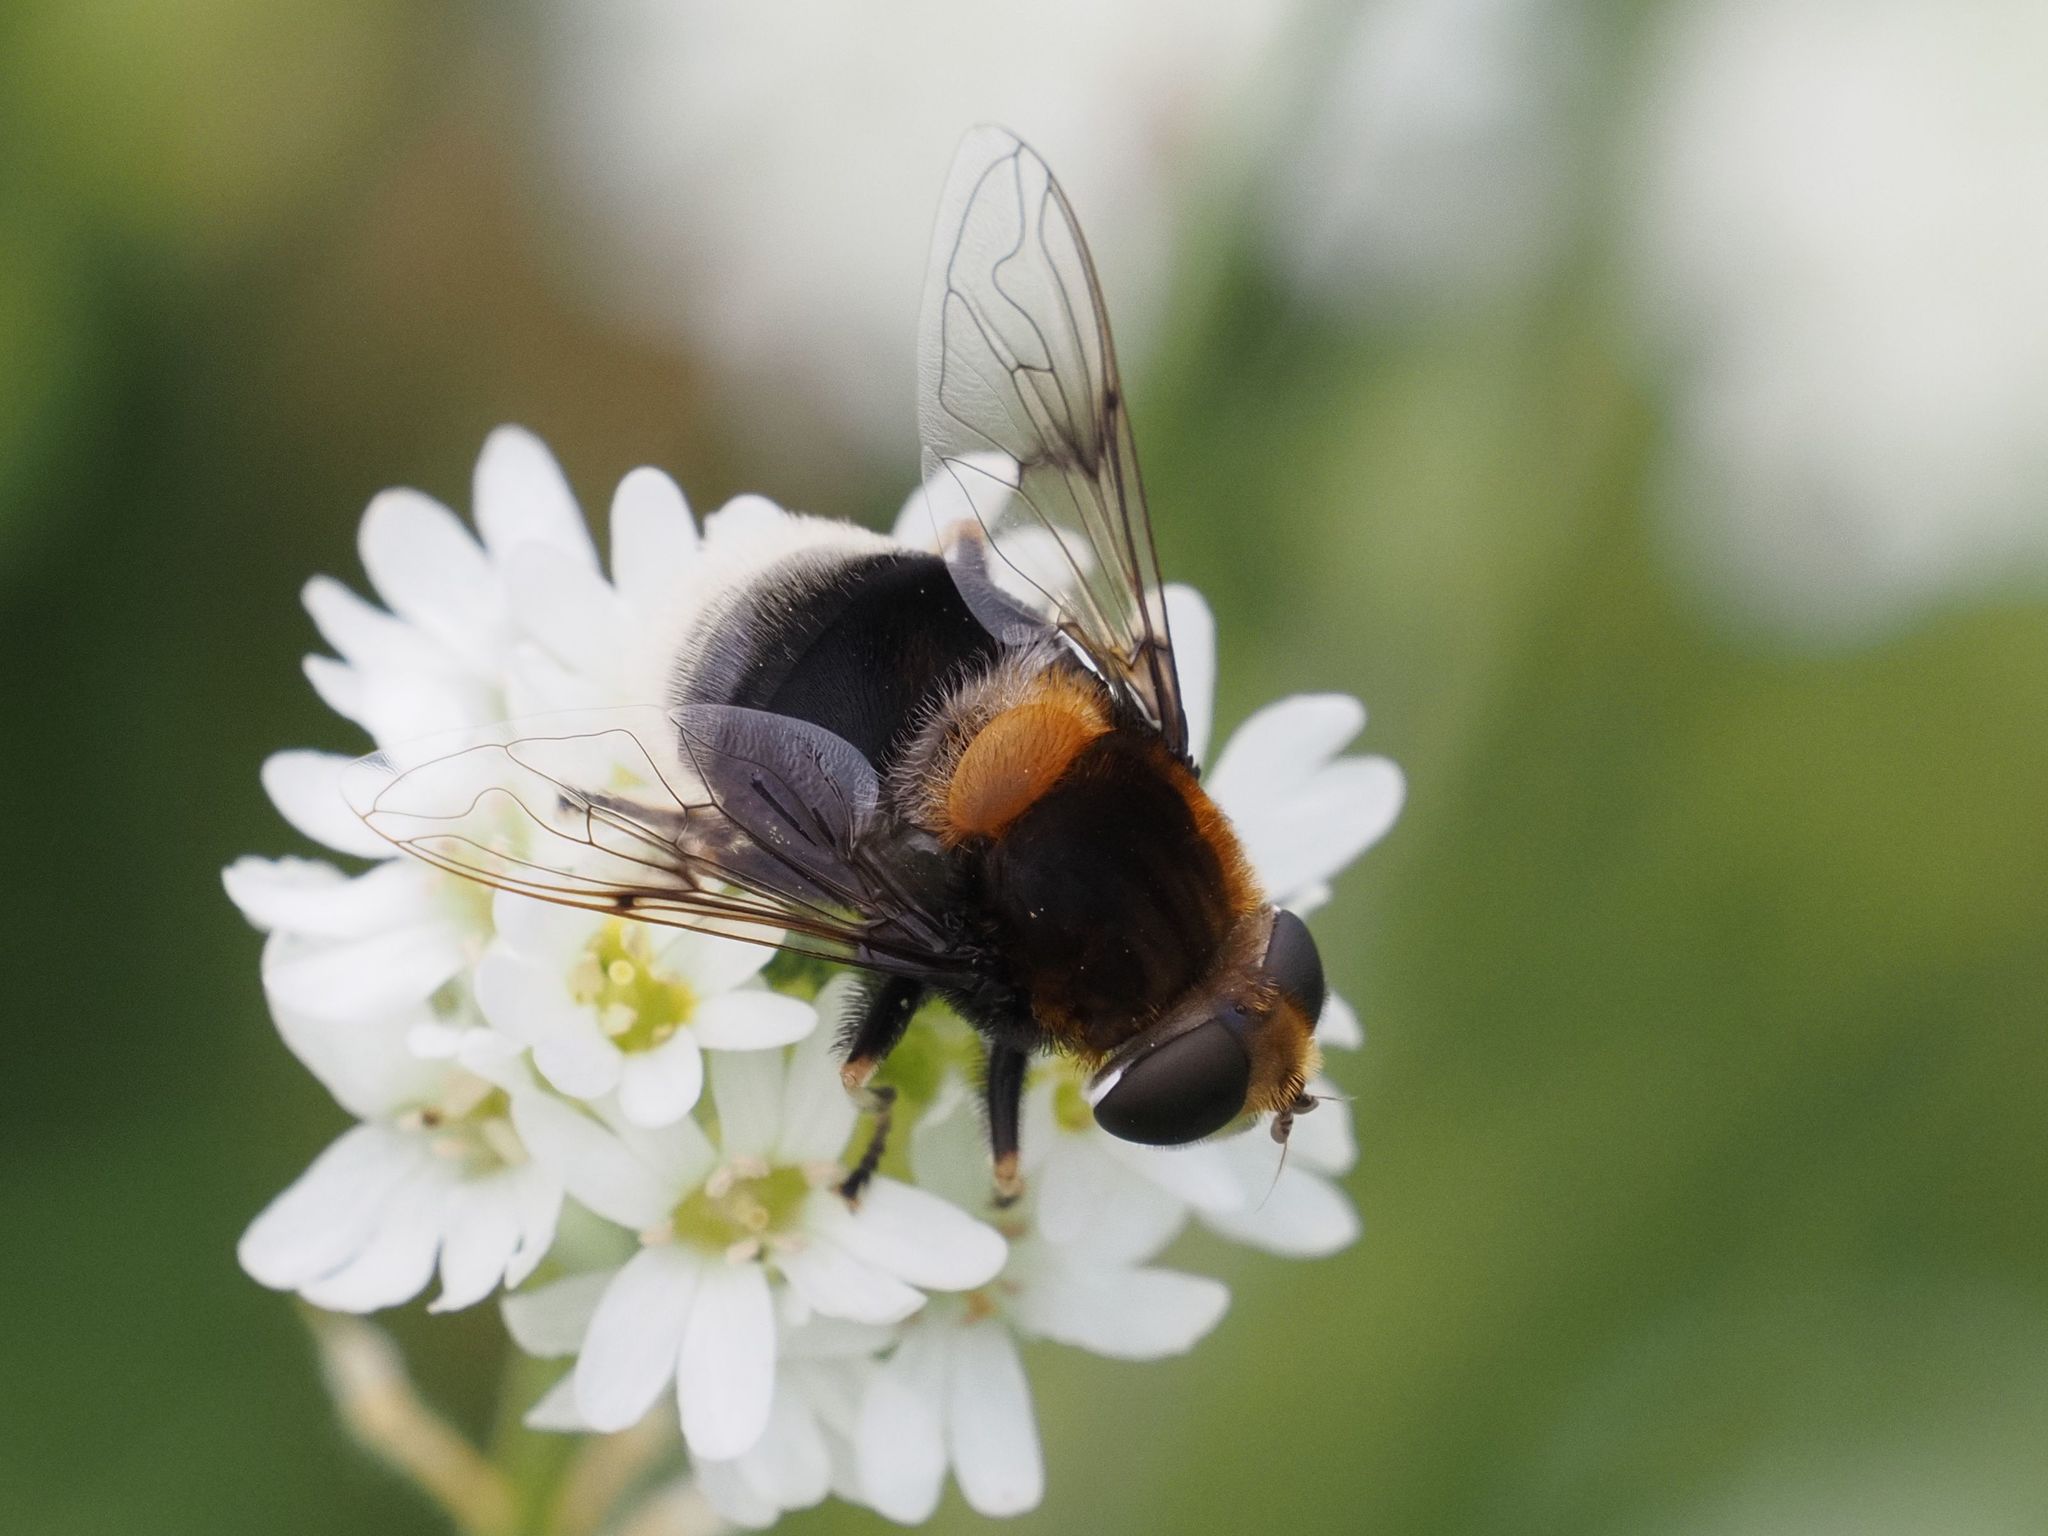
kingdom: Animalia
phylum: Arthropoda
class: Insecta
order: Diptera
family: Syrphidae
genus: Eristalis
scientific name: Eristalis intricaria
